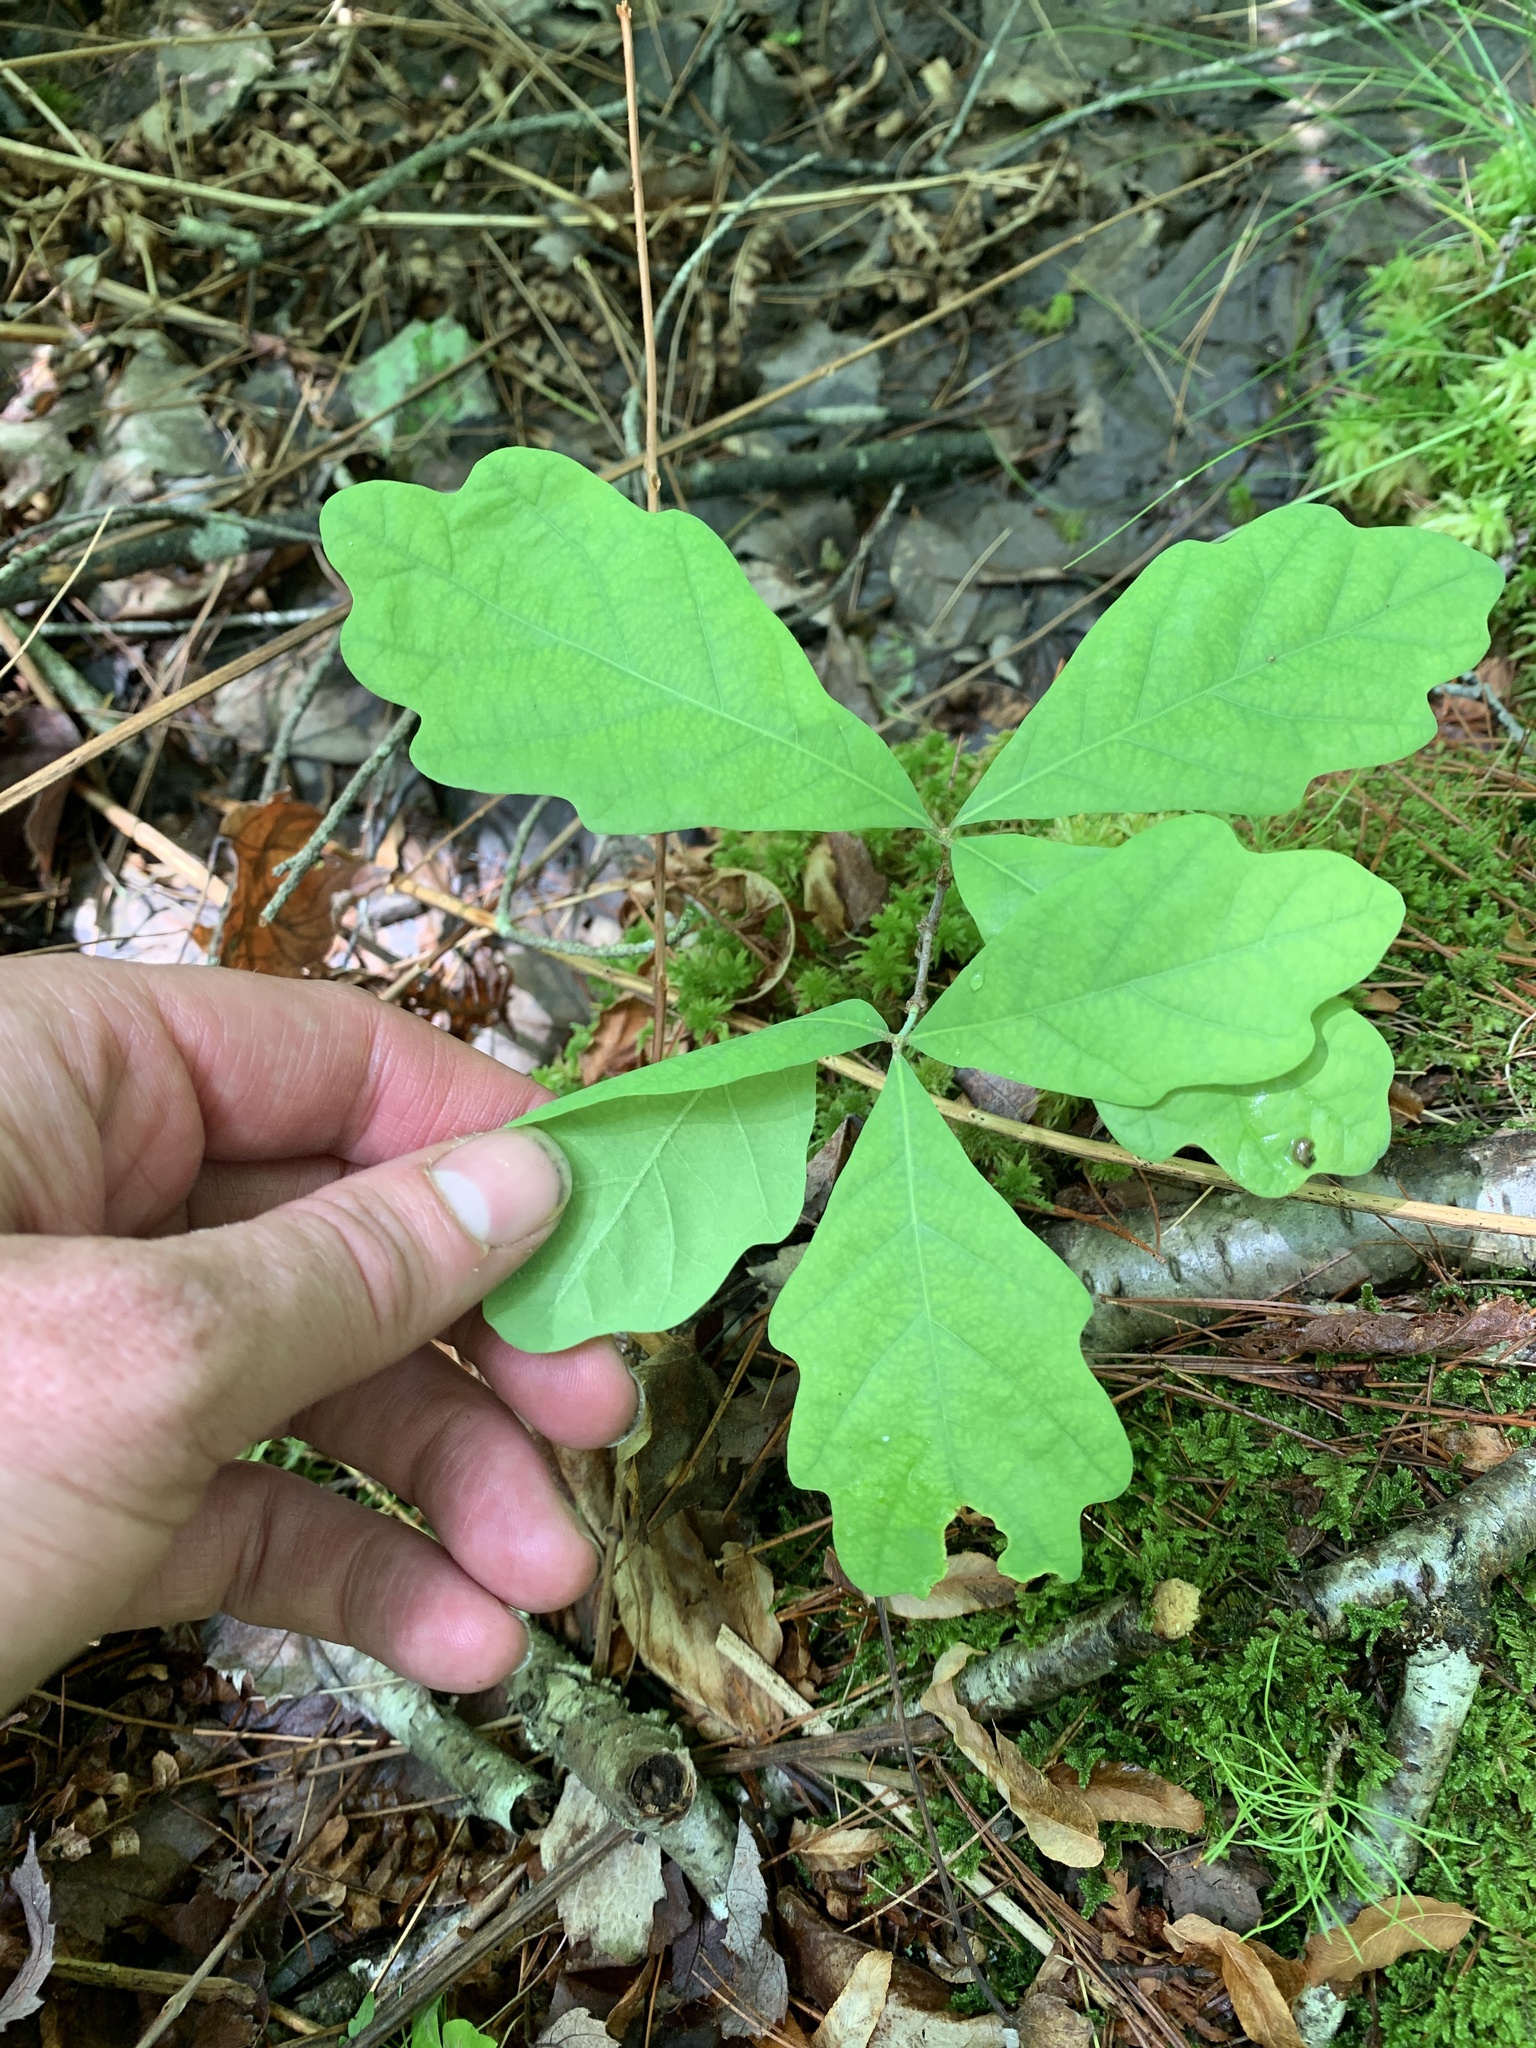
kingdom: Plantae
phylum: Tracheophyta
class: Magnoliopsida
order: Fagales
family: Fagaceae
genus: Quercus
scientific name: Quercus alba
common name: White oak
